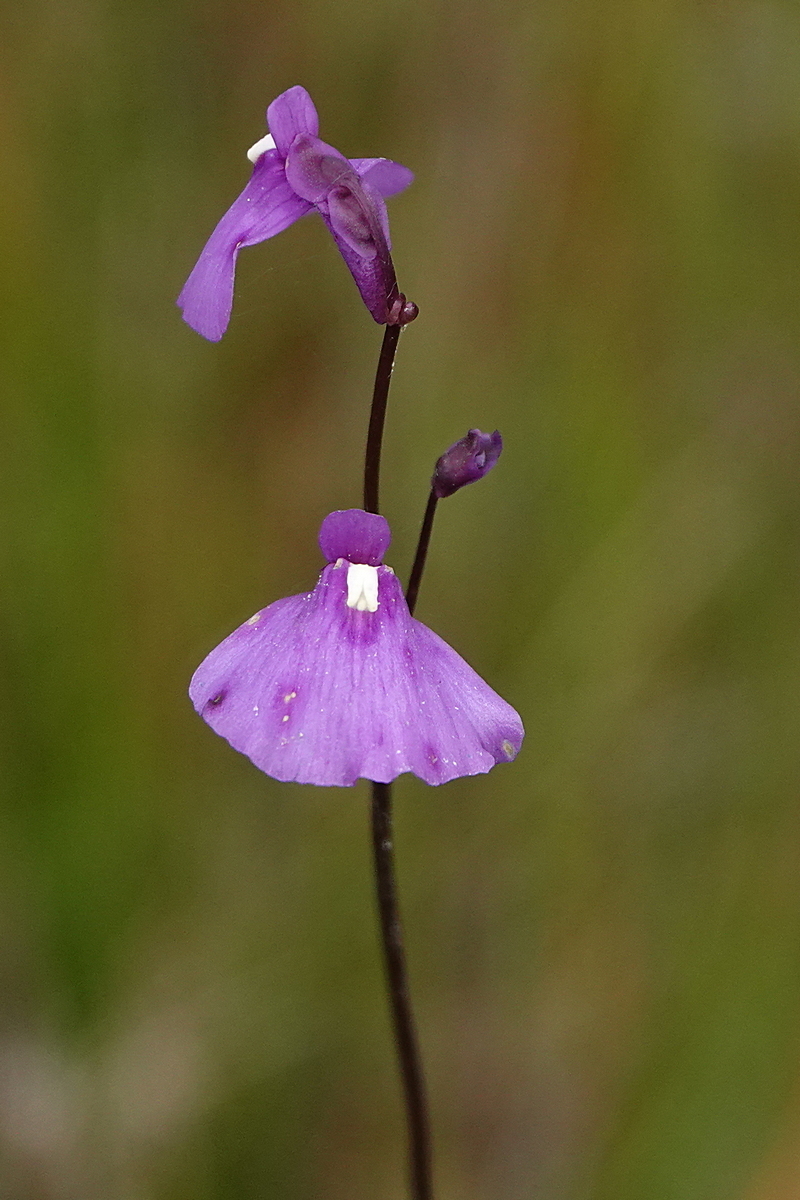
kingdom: Plantae
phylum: Tracheophyta
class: Magnoliopsida
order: Lamiales
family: Lentibulariaceae
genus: Utricularia
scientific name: Utricularia dichotoma
